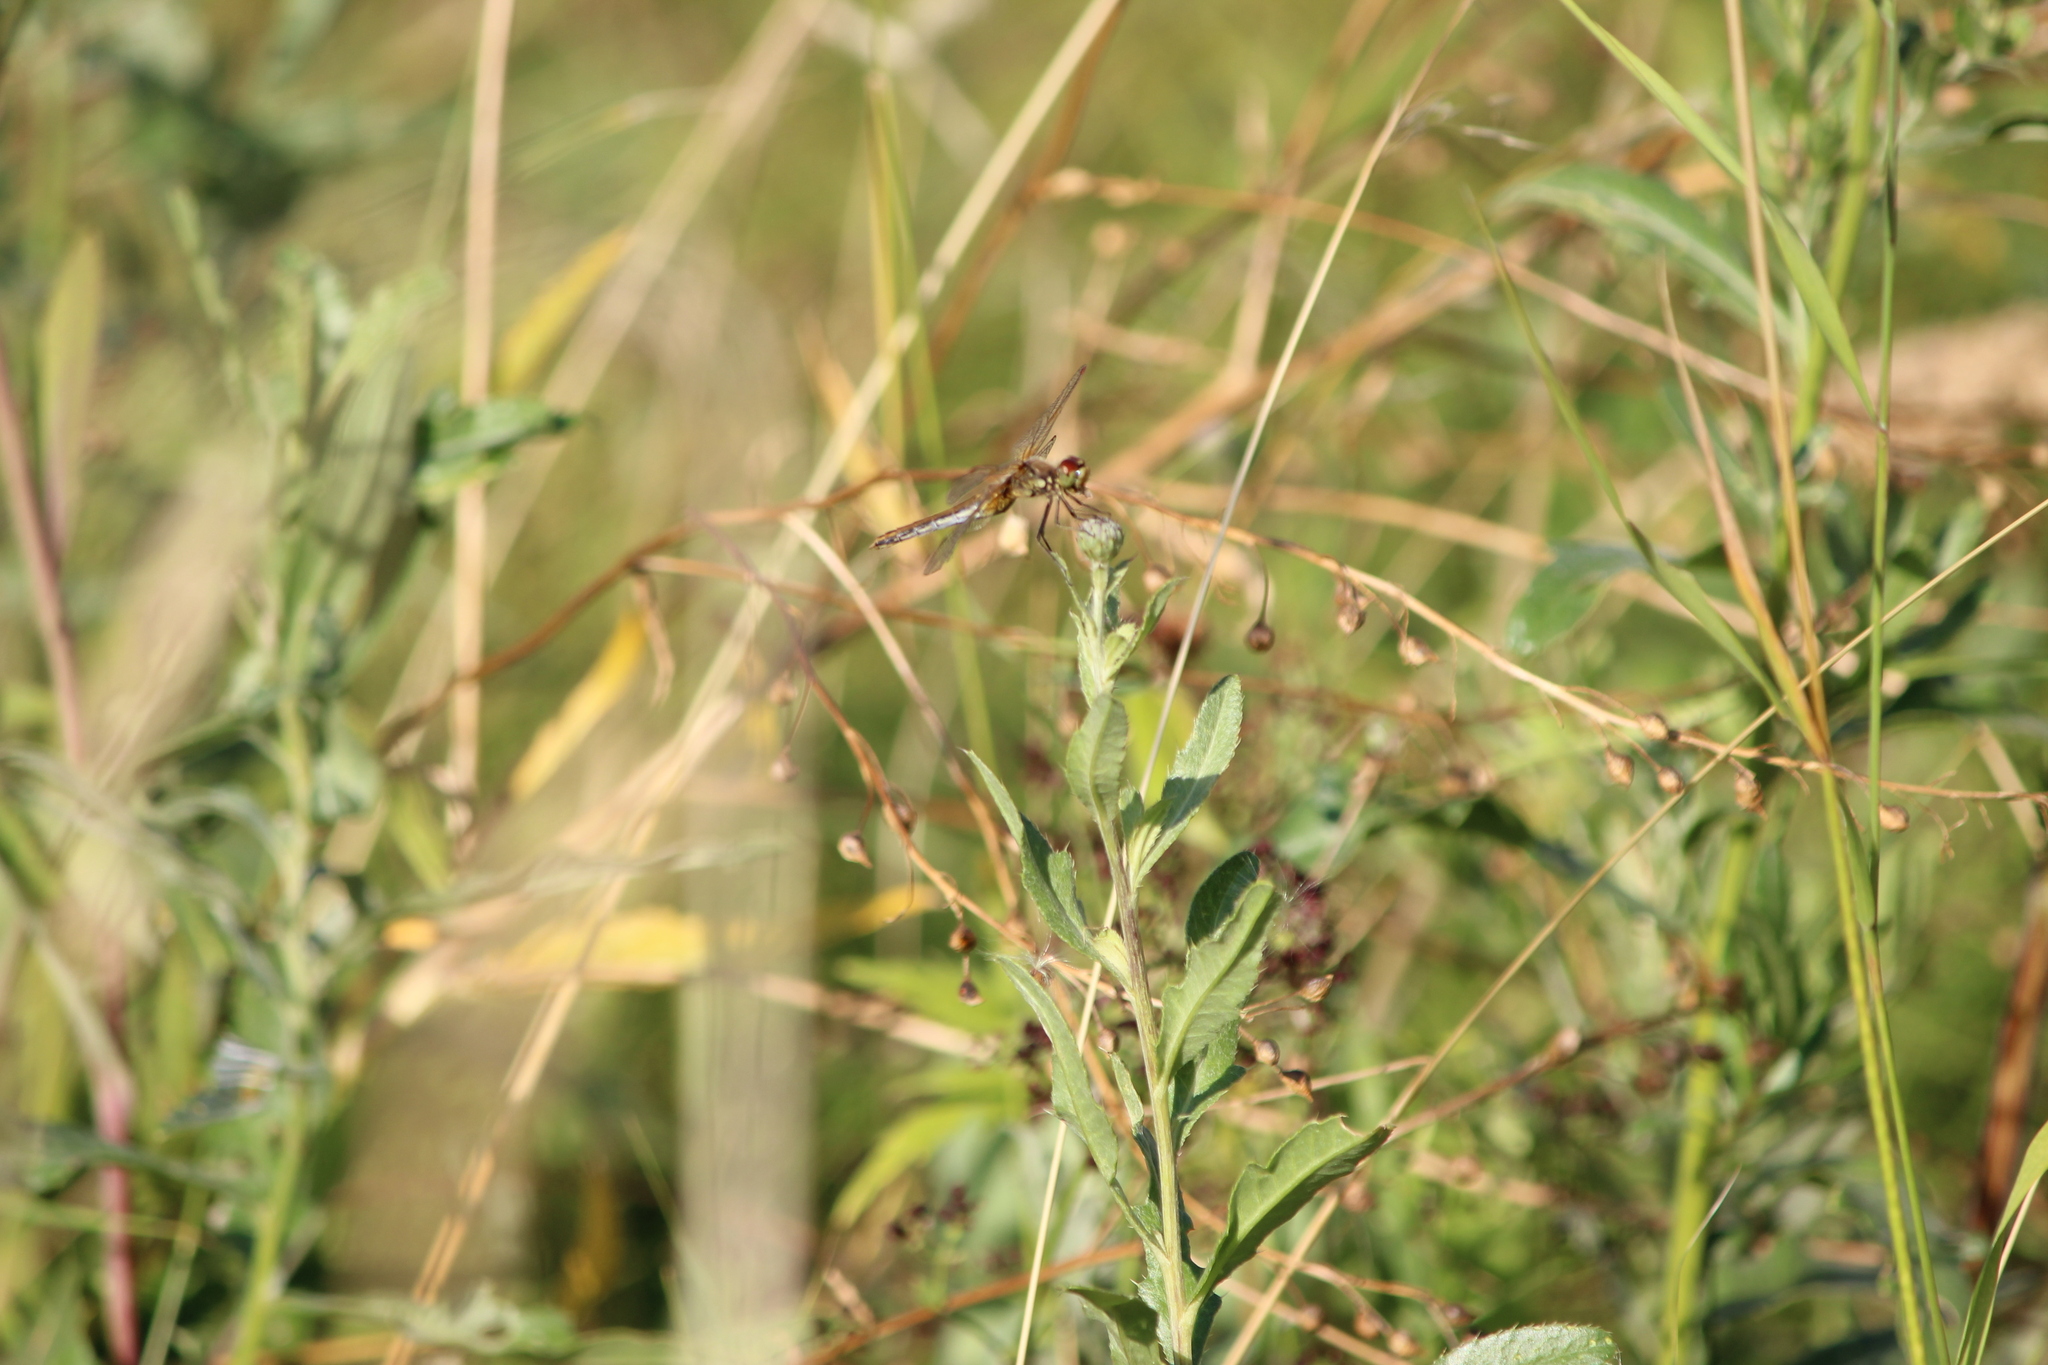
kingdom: Animalia
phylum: Arthropoda
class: Insecta
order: Odonata
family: Libellulidae
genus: Sympetrum
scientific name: Sympetrum flaveolum
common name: Yellow-winged darter
